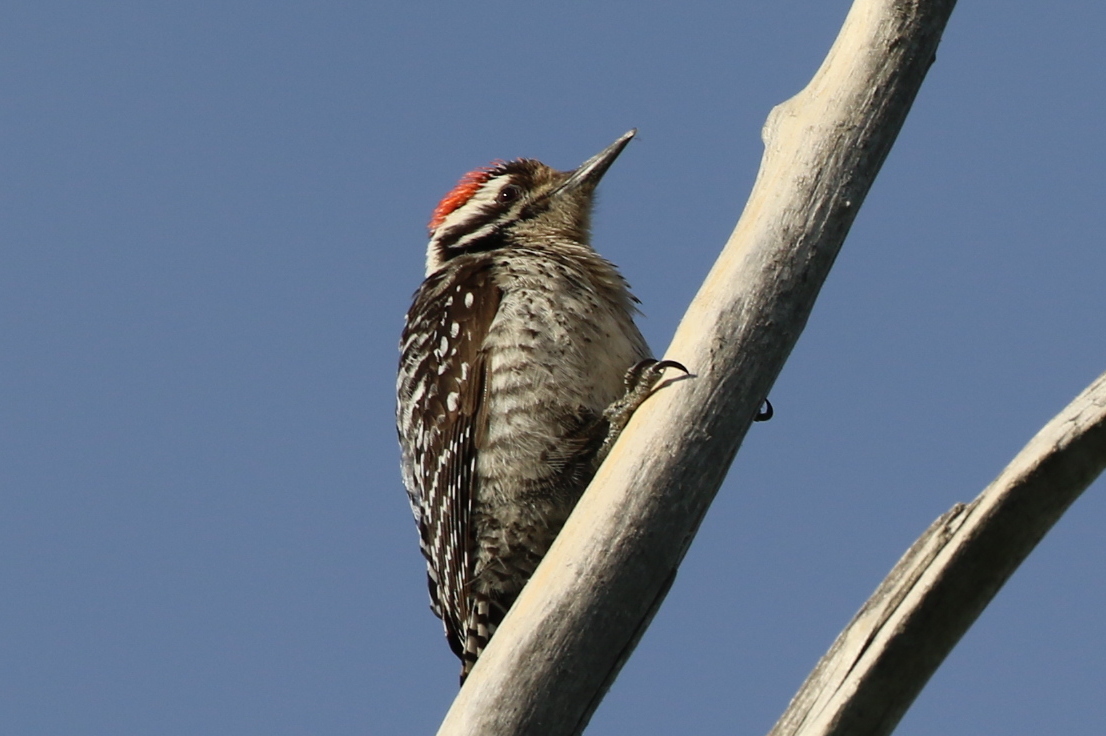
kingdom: Animalia
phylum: Chordata
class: Aves
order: Piciformes
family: Picidae
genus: Dryobates
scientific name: Dryobates scalaris
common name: Ladder-backed woodpecker
